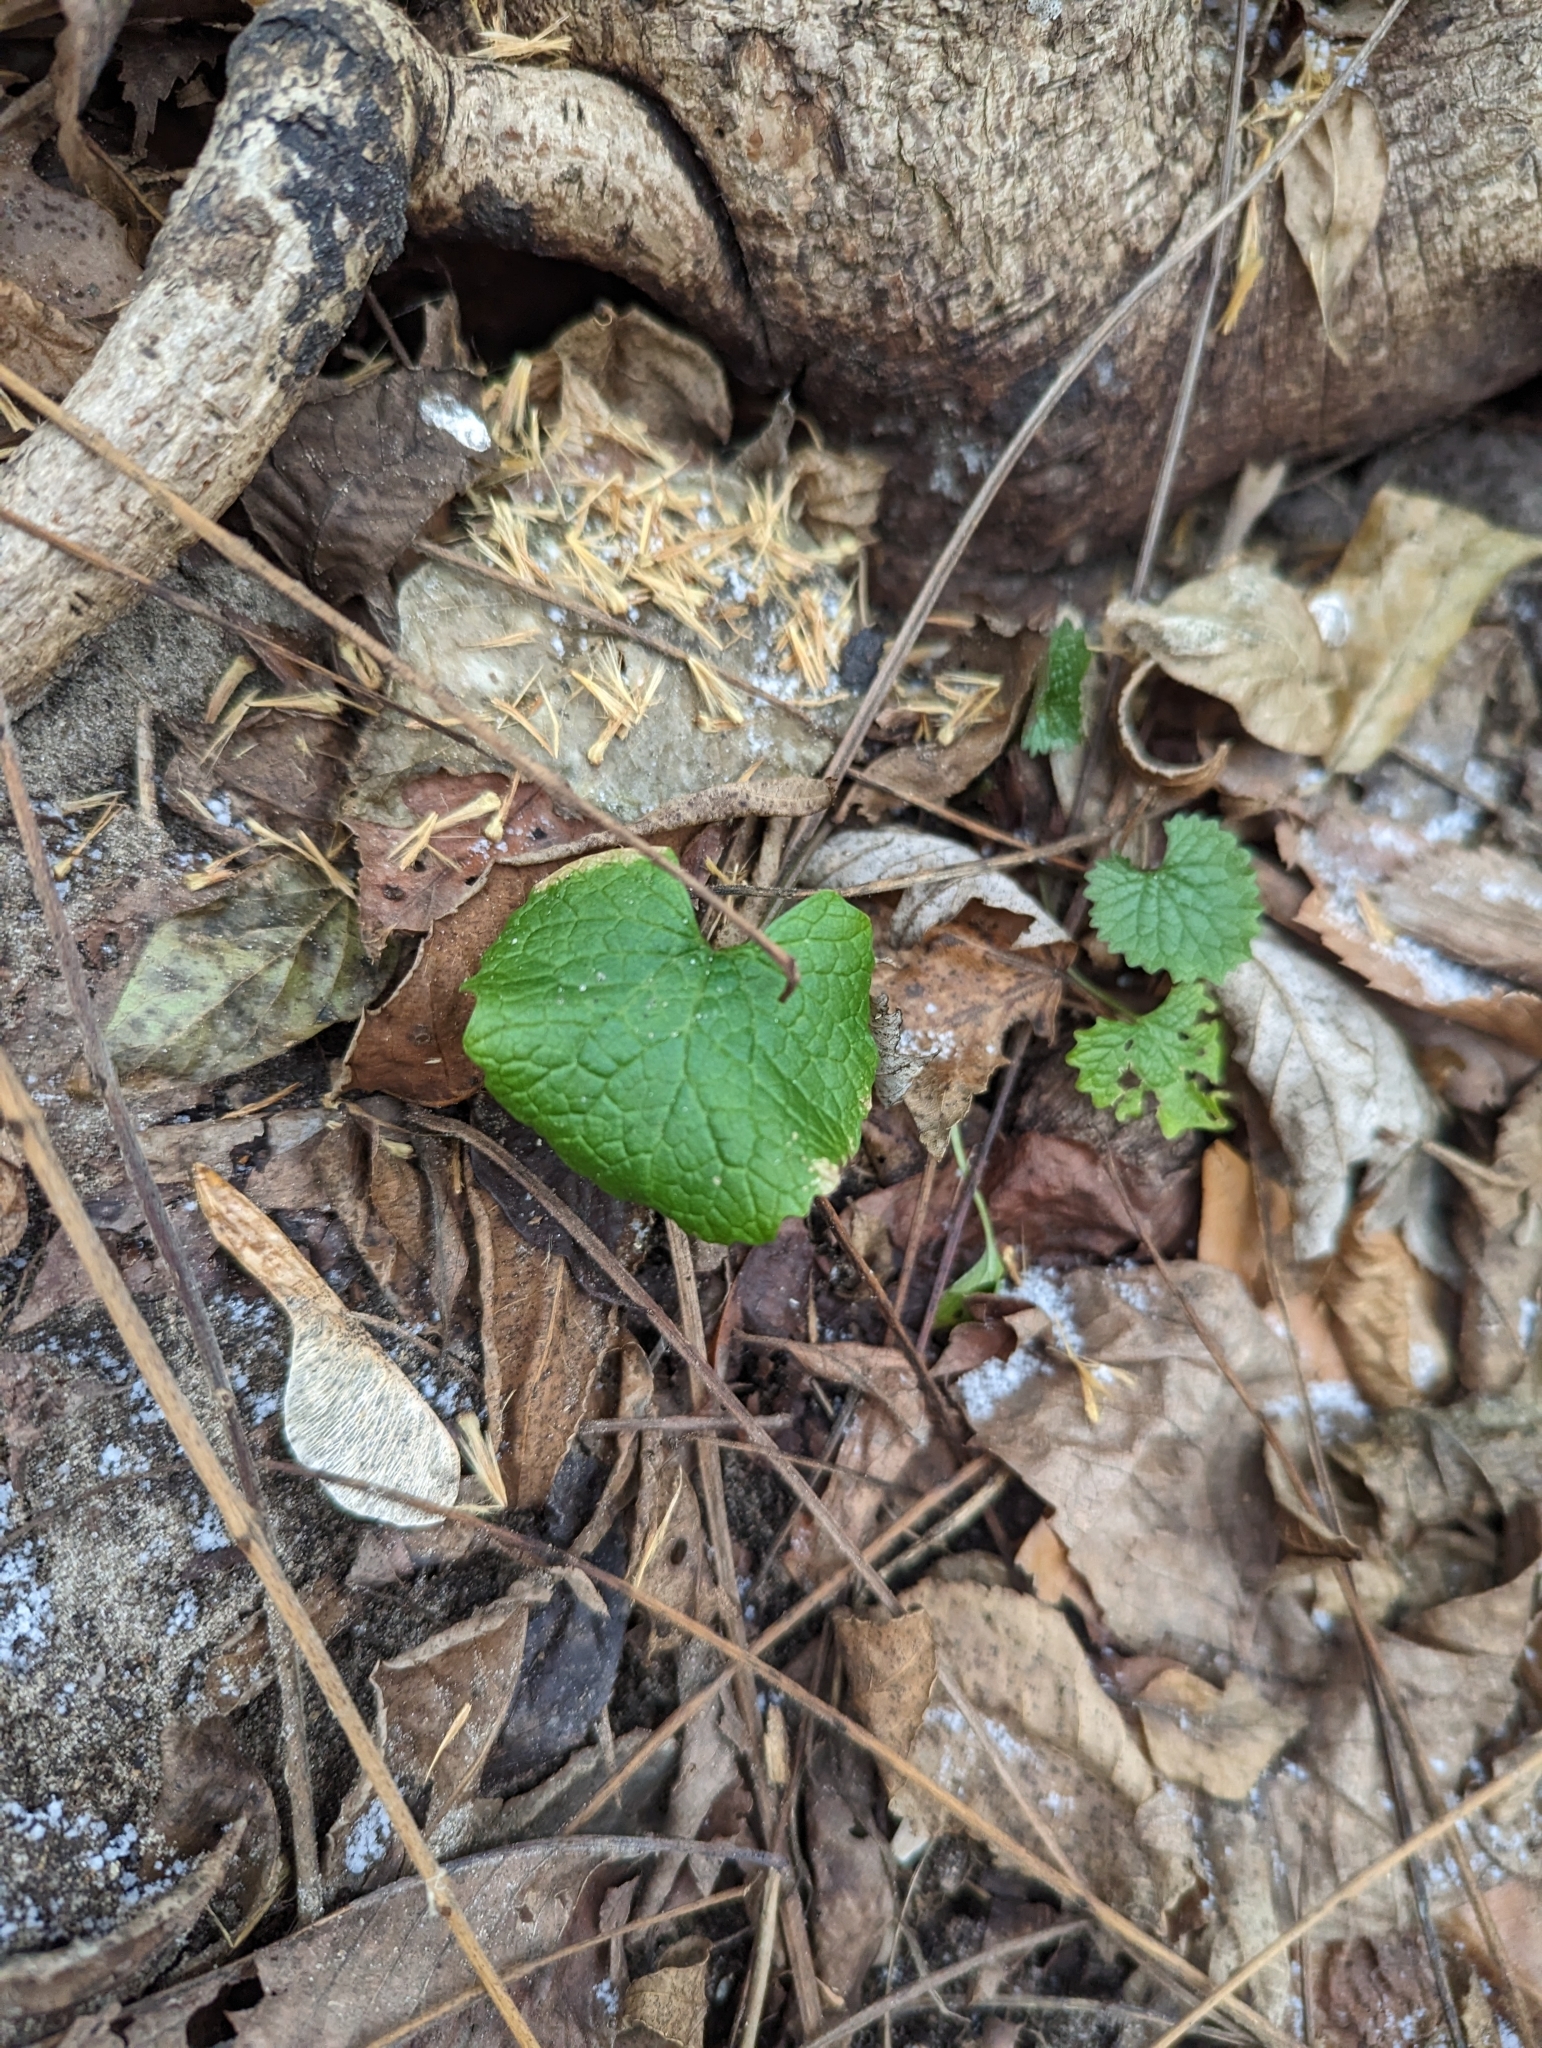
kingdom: Plantae
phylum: Tracheophyta
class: Magnoliopsida
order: Brassicales
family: Brassicaceae
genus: Alliaria
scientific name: Alliaria petiolata
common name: Garlic mustard
